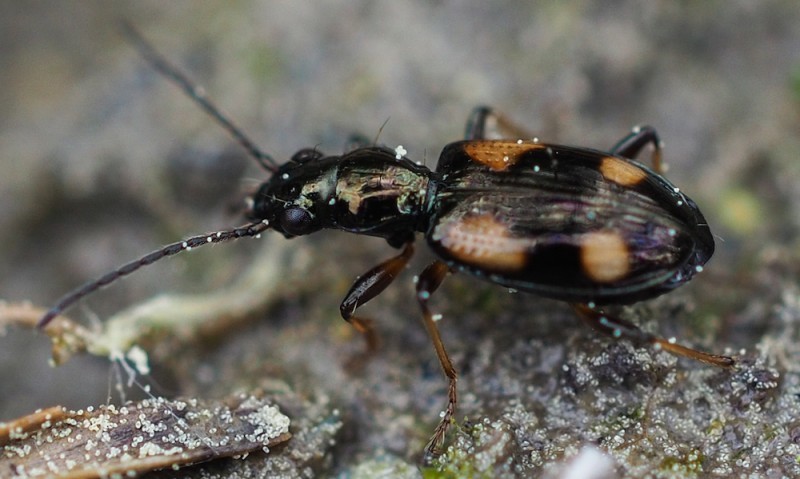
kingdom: Animalia
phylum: Arthropoda
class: Insecta
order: Coleoptera
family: Carabidae
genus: Bembidion
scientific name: Bembidion genei
